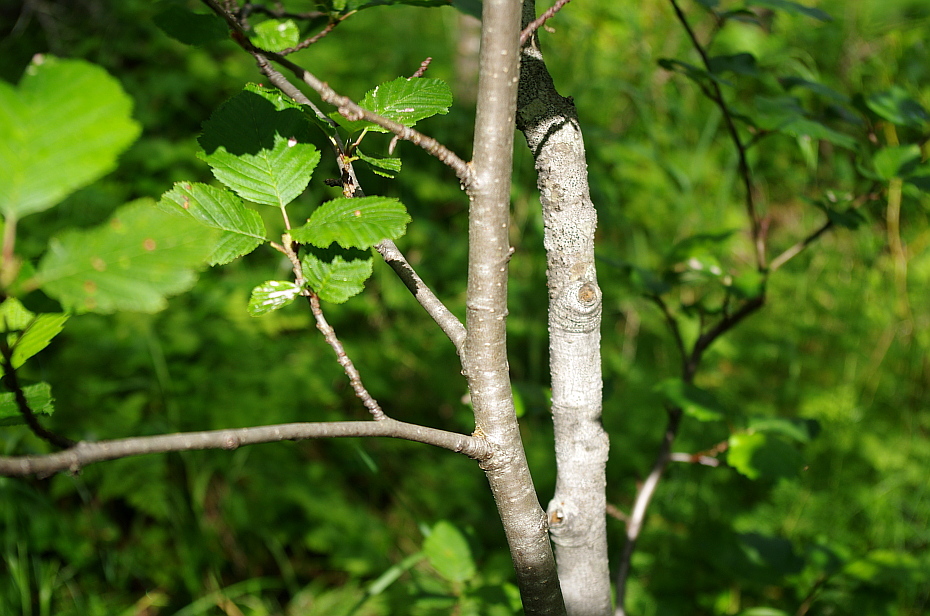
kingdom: Plantae
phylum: Tracheophyta
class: Magnoliopsida
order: Fagales
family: Betulaceae
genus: Alnus
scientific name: Alnus incana
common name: Grey alder
